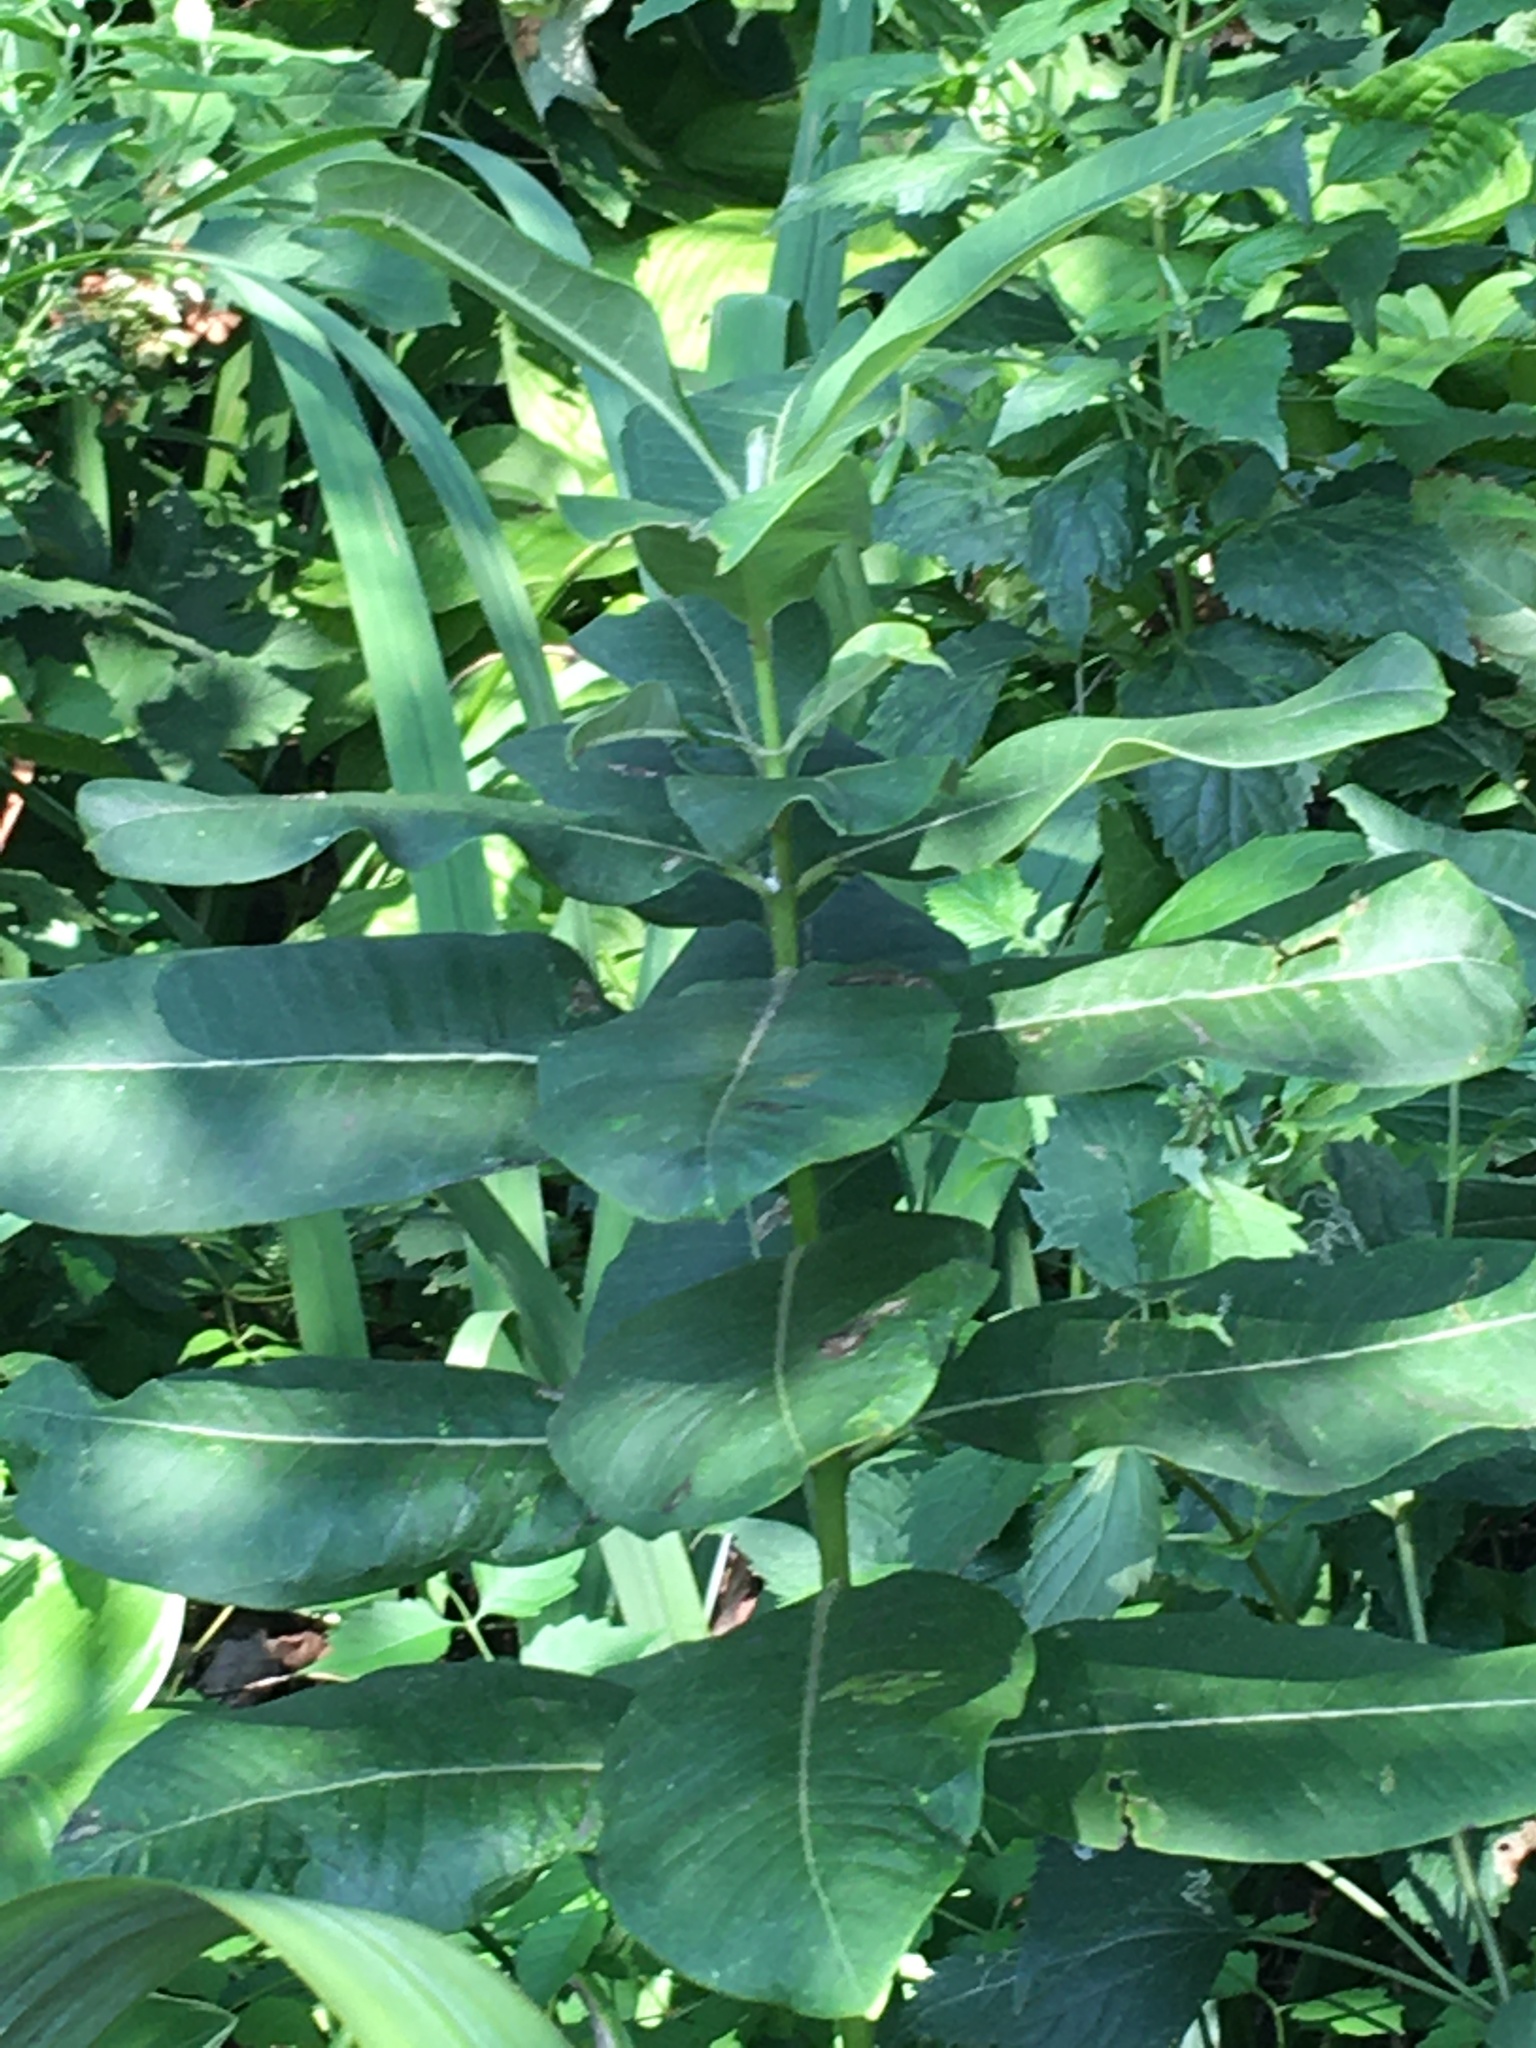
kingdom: Plantae
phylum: Tracheophyta
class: Magnoliopsida
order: Gentianales
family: Apocynaceae
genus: Asclepias
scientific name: Asclepias syriaca
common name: Common milkweed
